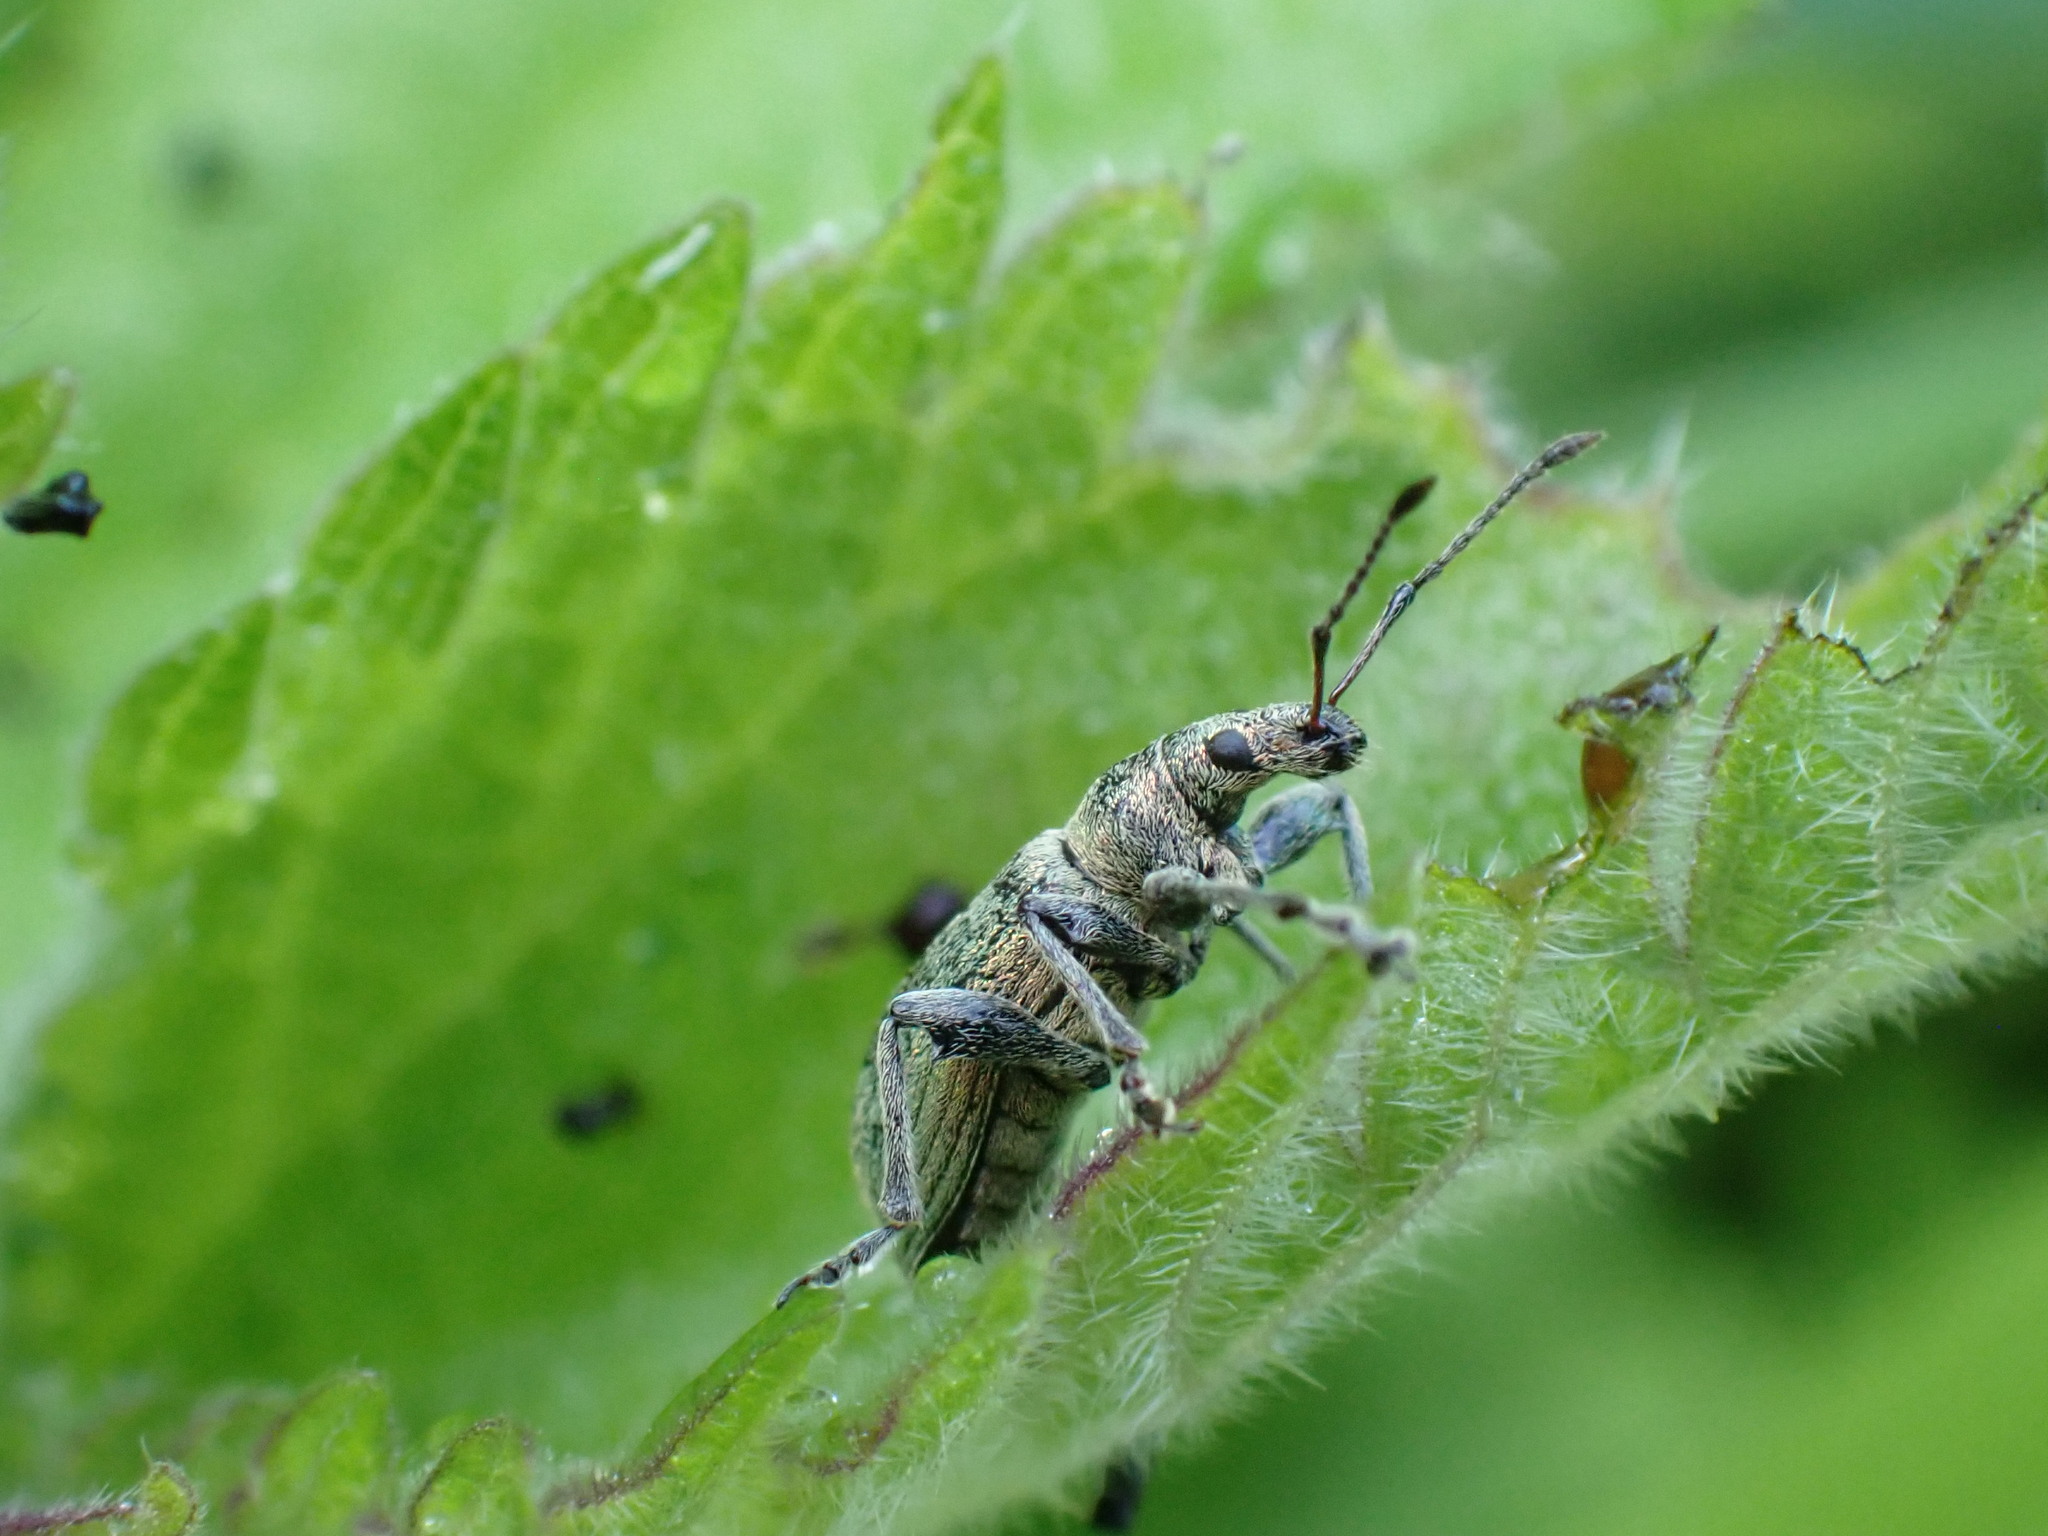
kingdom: Animalia
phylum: Arthropoda
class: Insecta
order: Coleoptera
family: Curculionidae
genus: Phyllobius
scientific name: Phyllobius pomaceus
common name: Green nettle weevil
